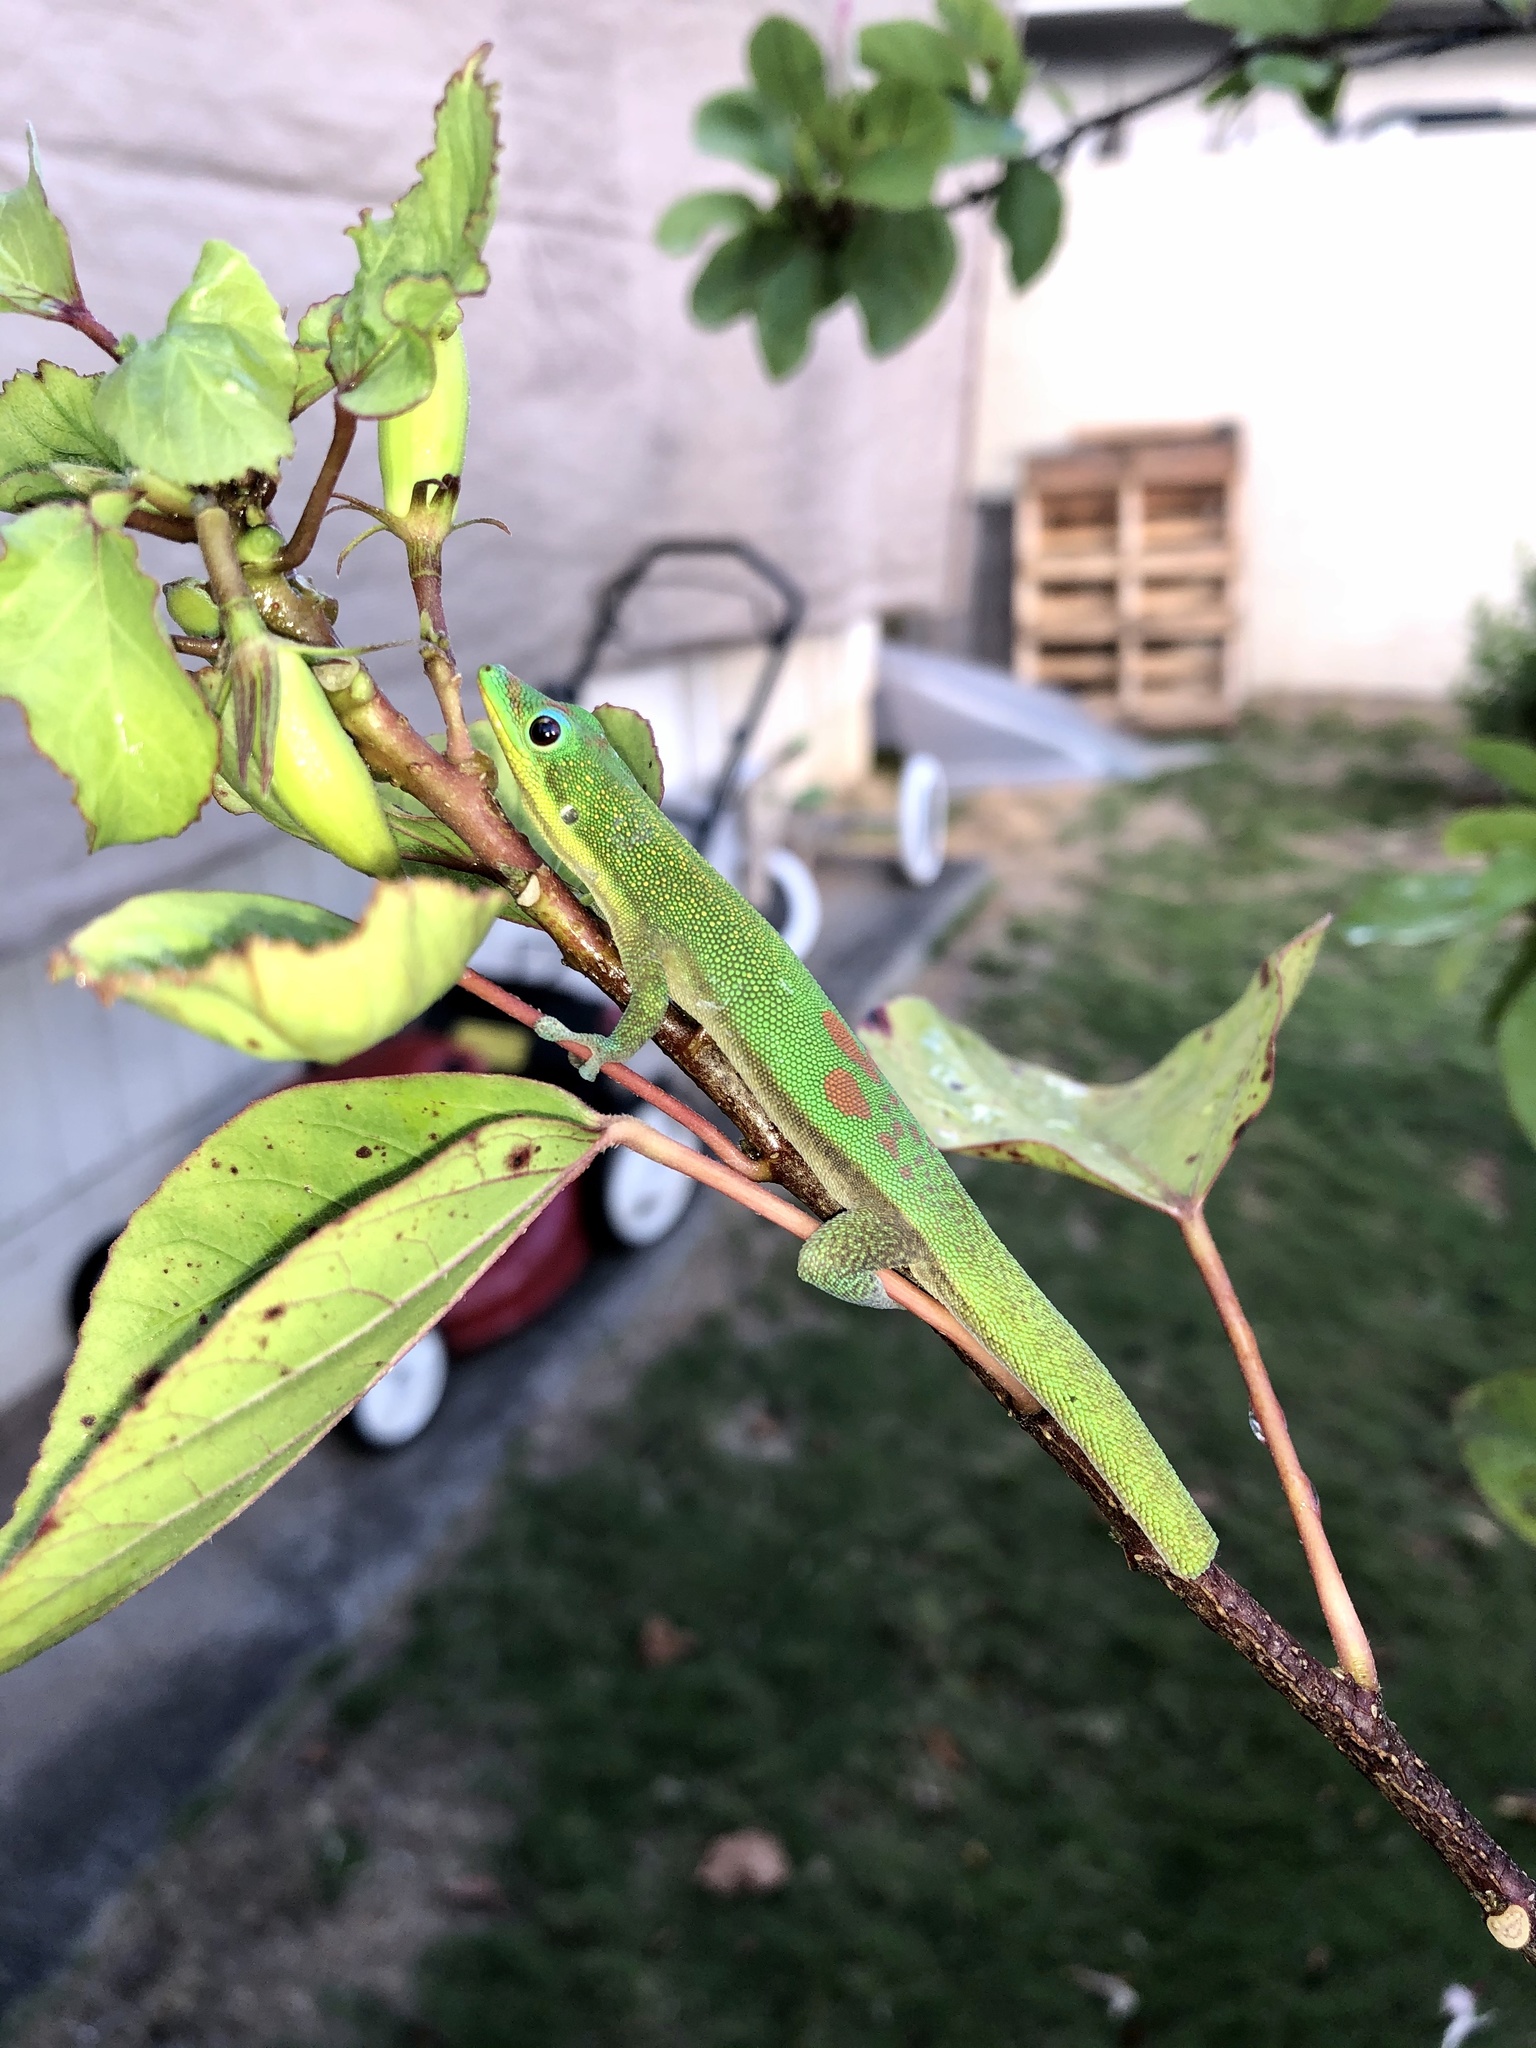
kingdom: Animalia
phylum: Chordata
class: Squamata
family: Gekkonidae
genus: Phelsuma
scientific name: Phelsuma laticauda
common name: Gold dust day gecko
